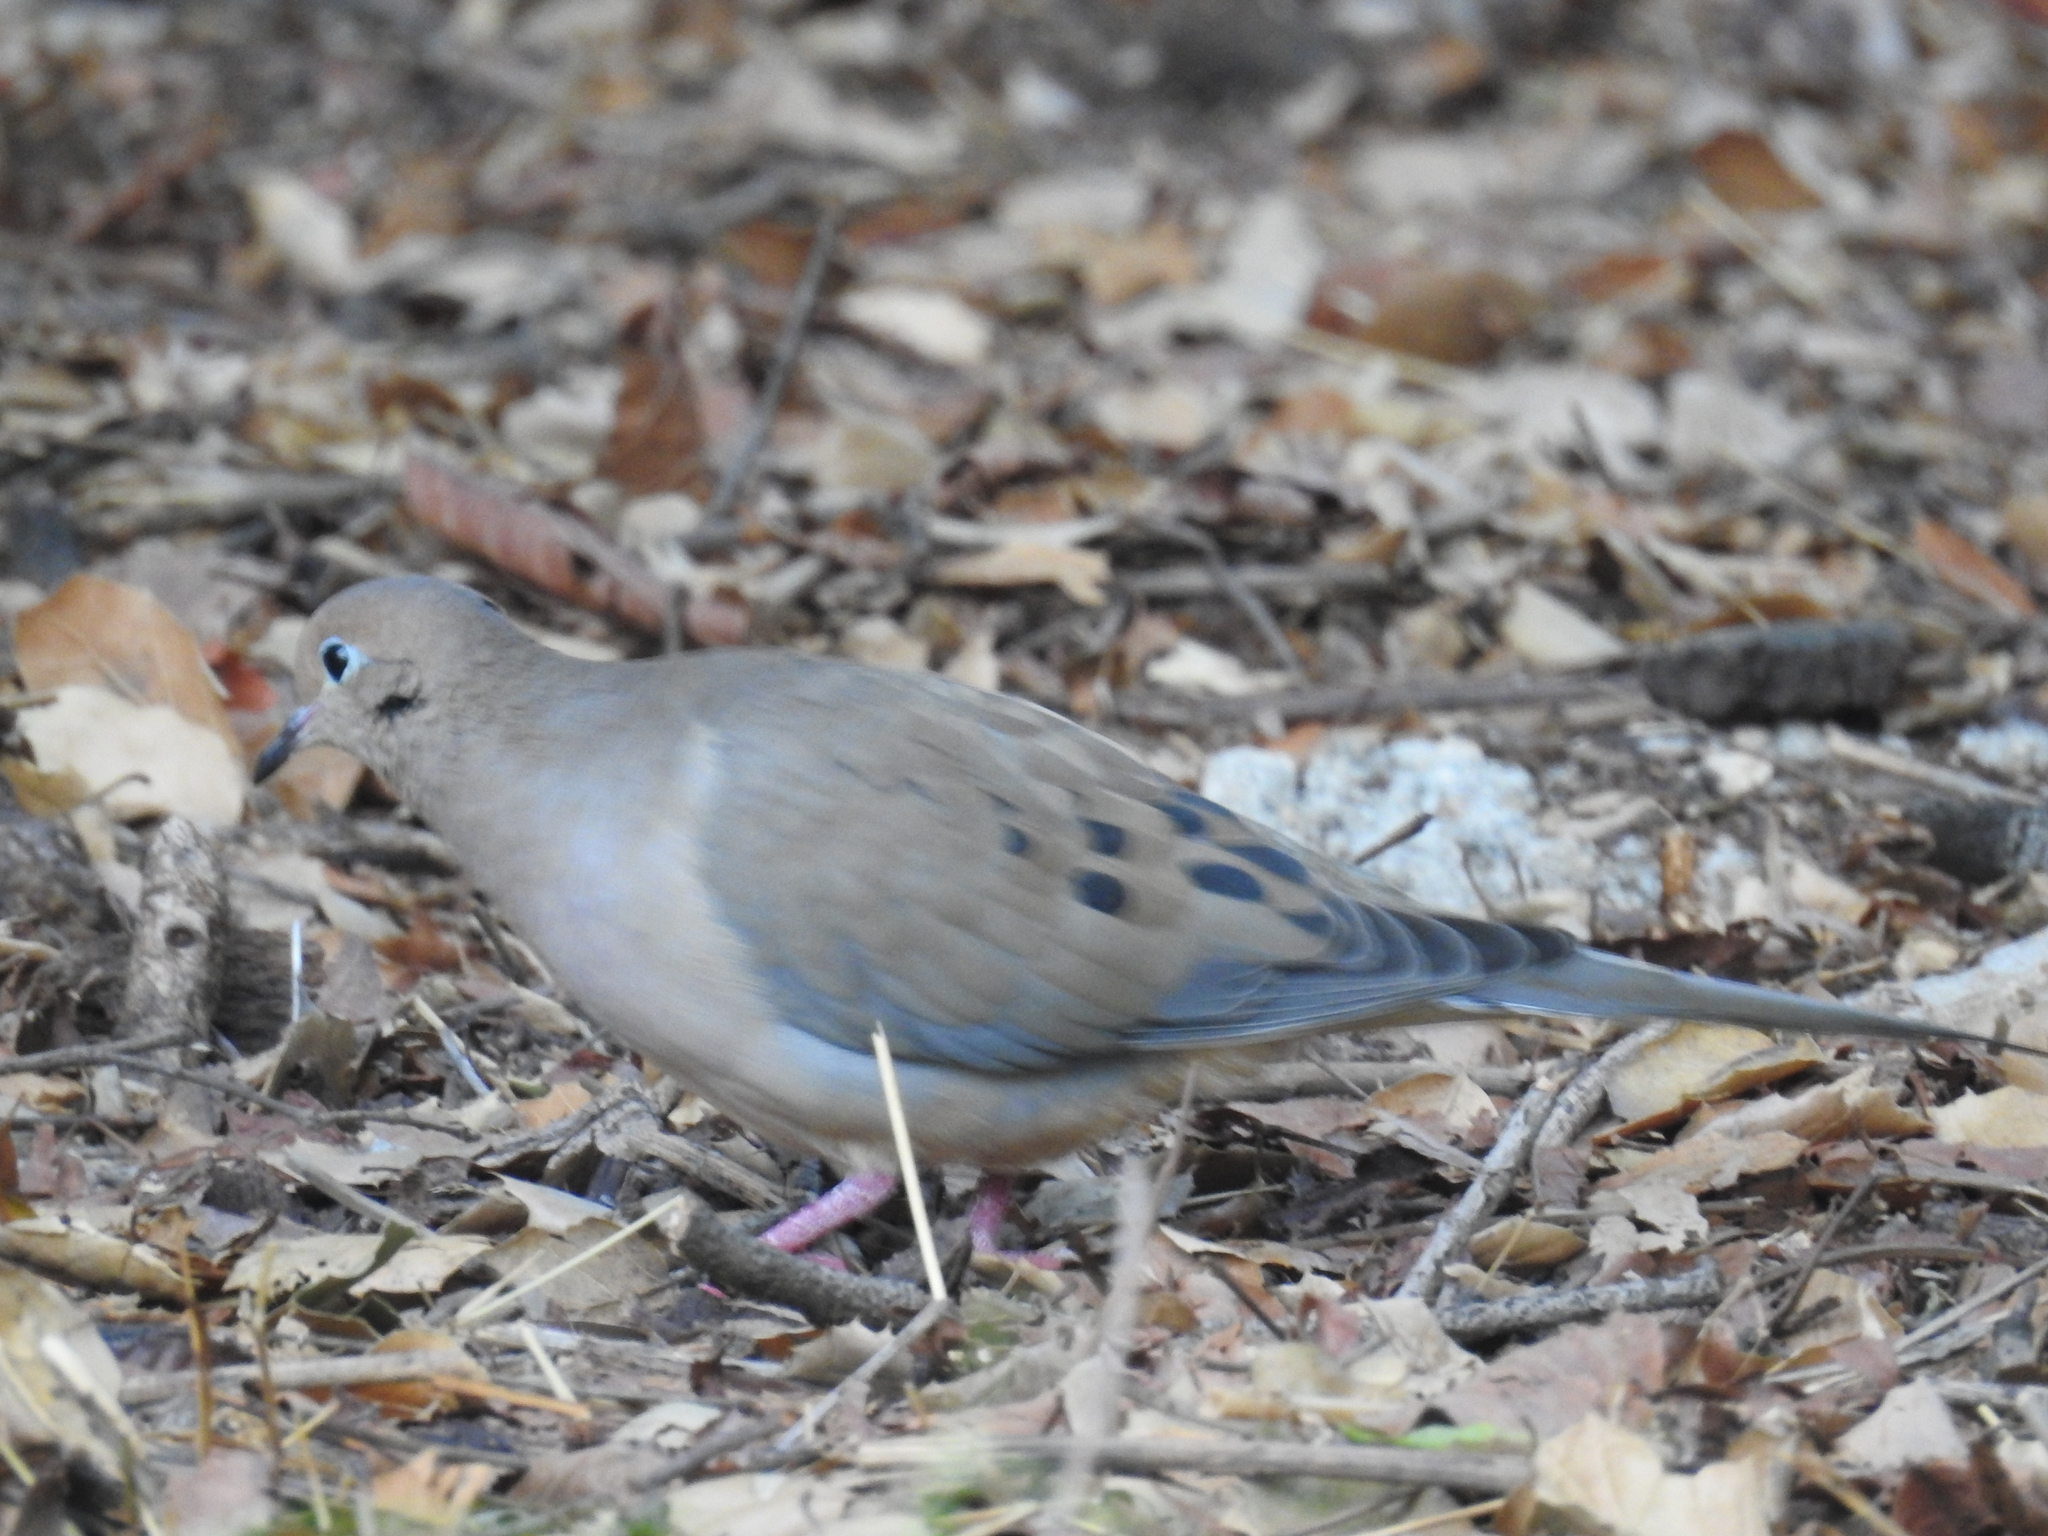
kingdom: Animalia
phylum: Chordata
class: Aves
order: Columbiformes
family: Columbidae
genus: Zenaida
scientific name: Zenaida macroura
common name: Mourning dove
